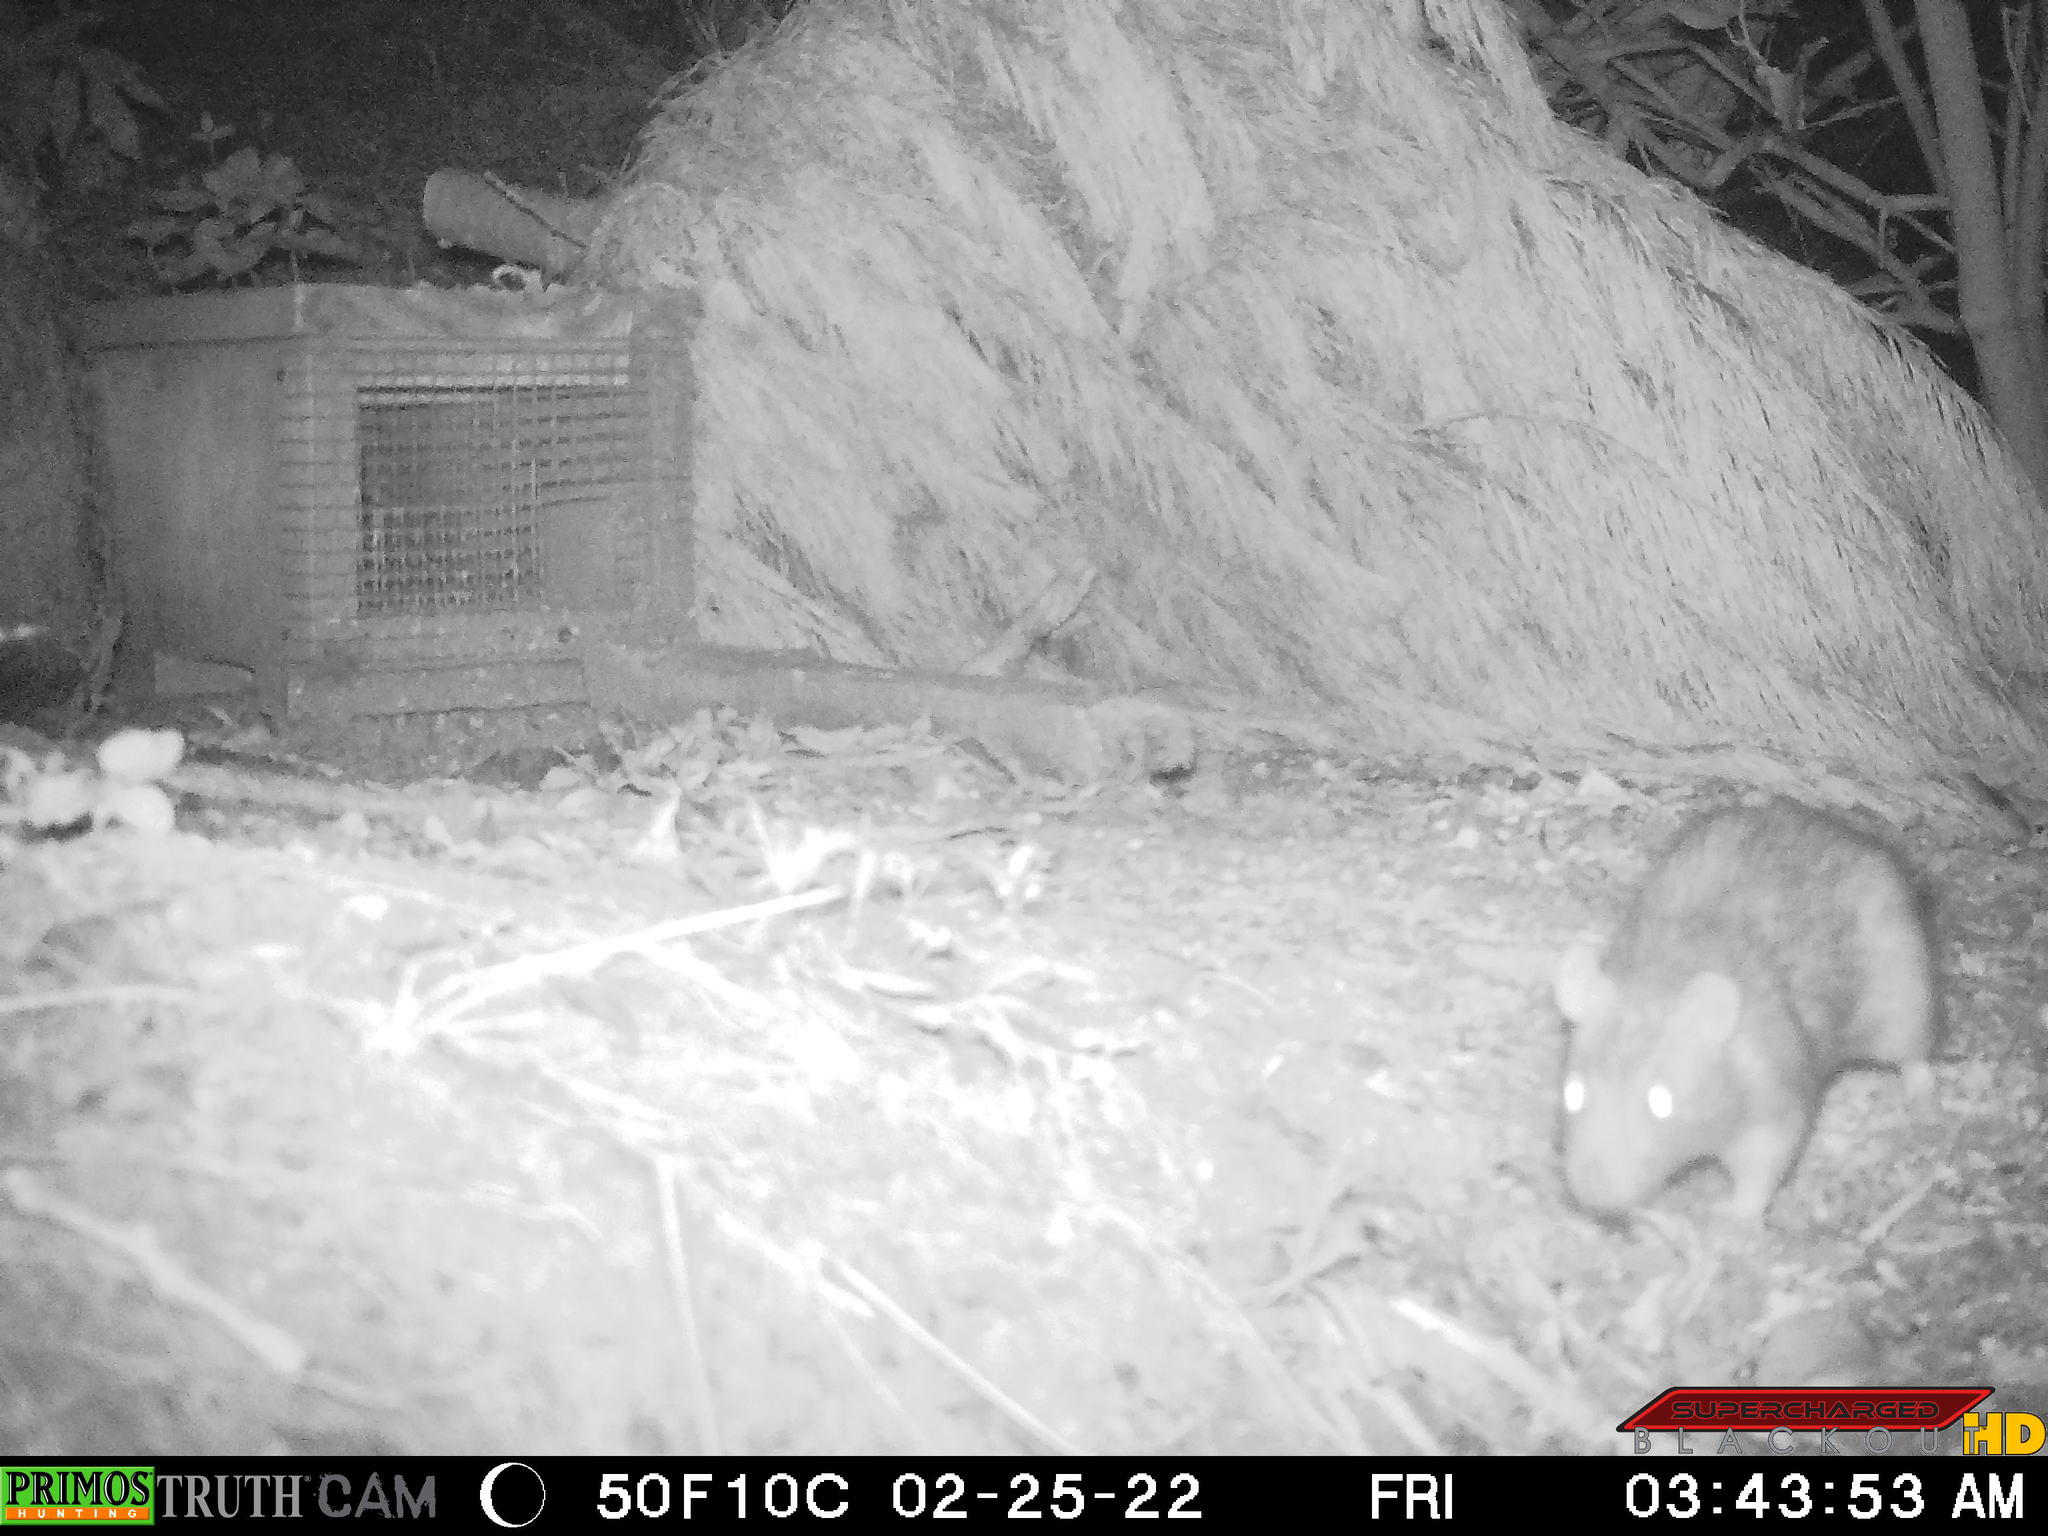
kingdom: Animalia
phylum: Chordata
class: Mammalia
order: Rodentia
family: Muridae
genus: Rattus
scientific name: Rattus norvegicus
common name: Brown rat
